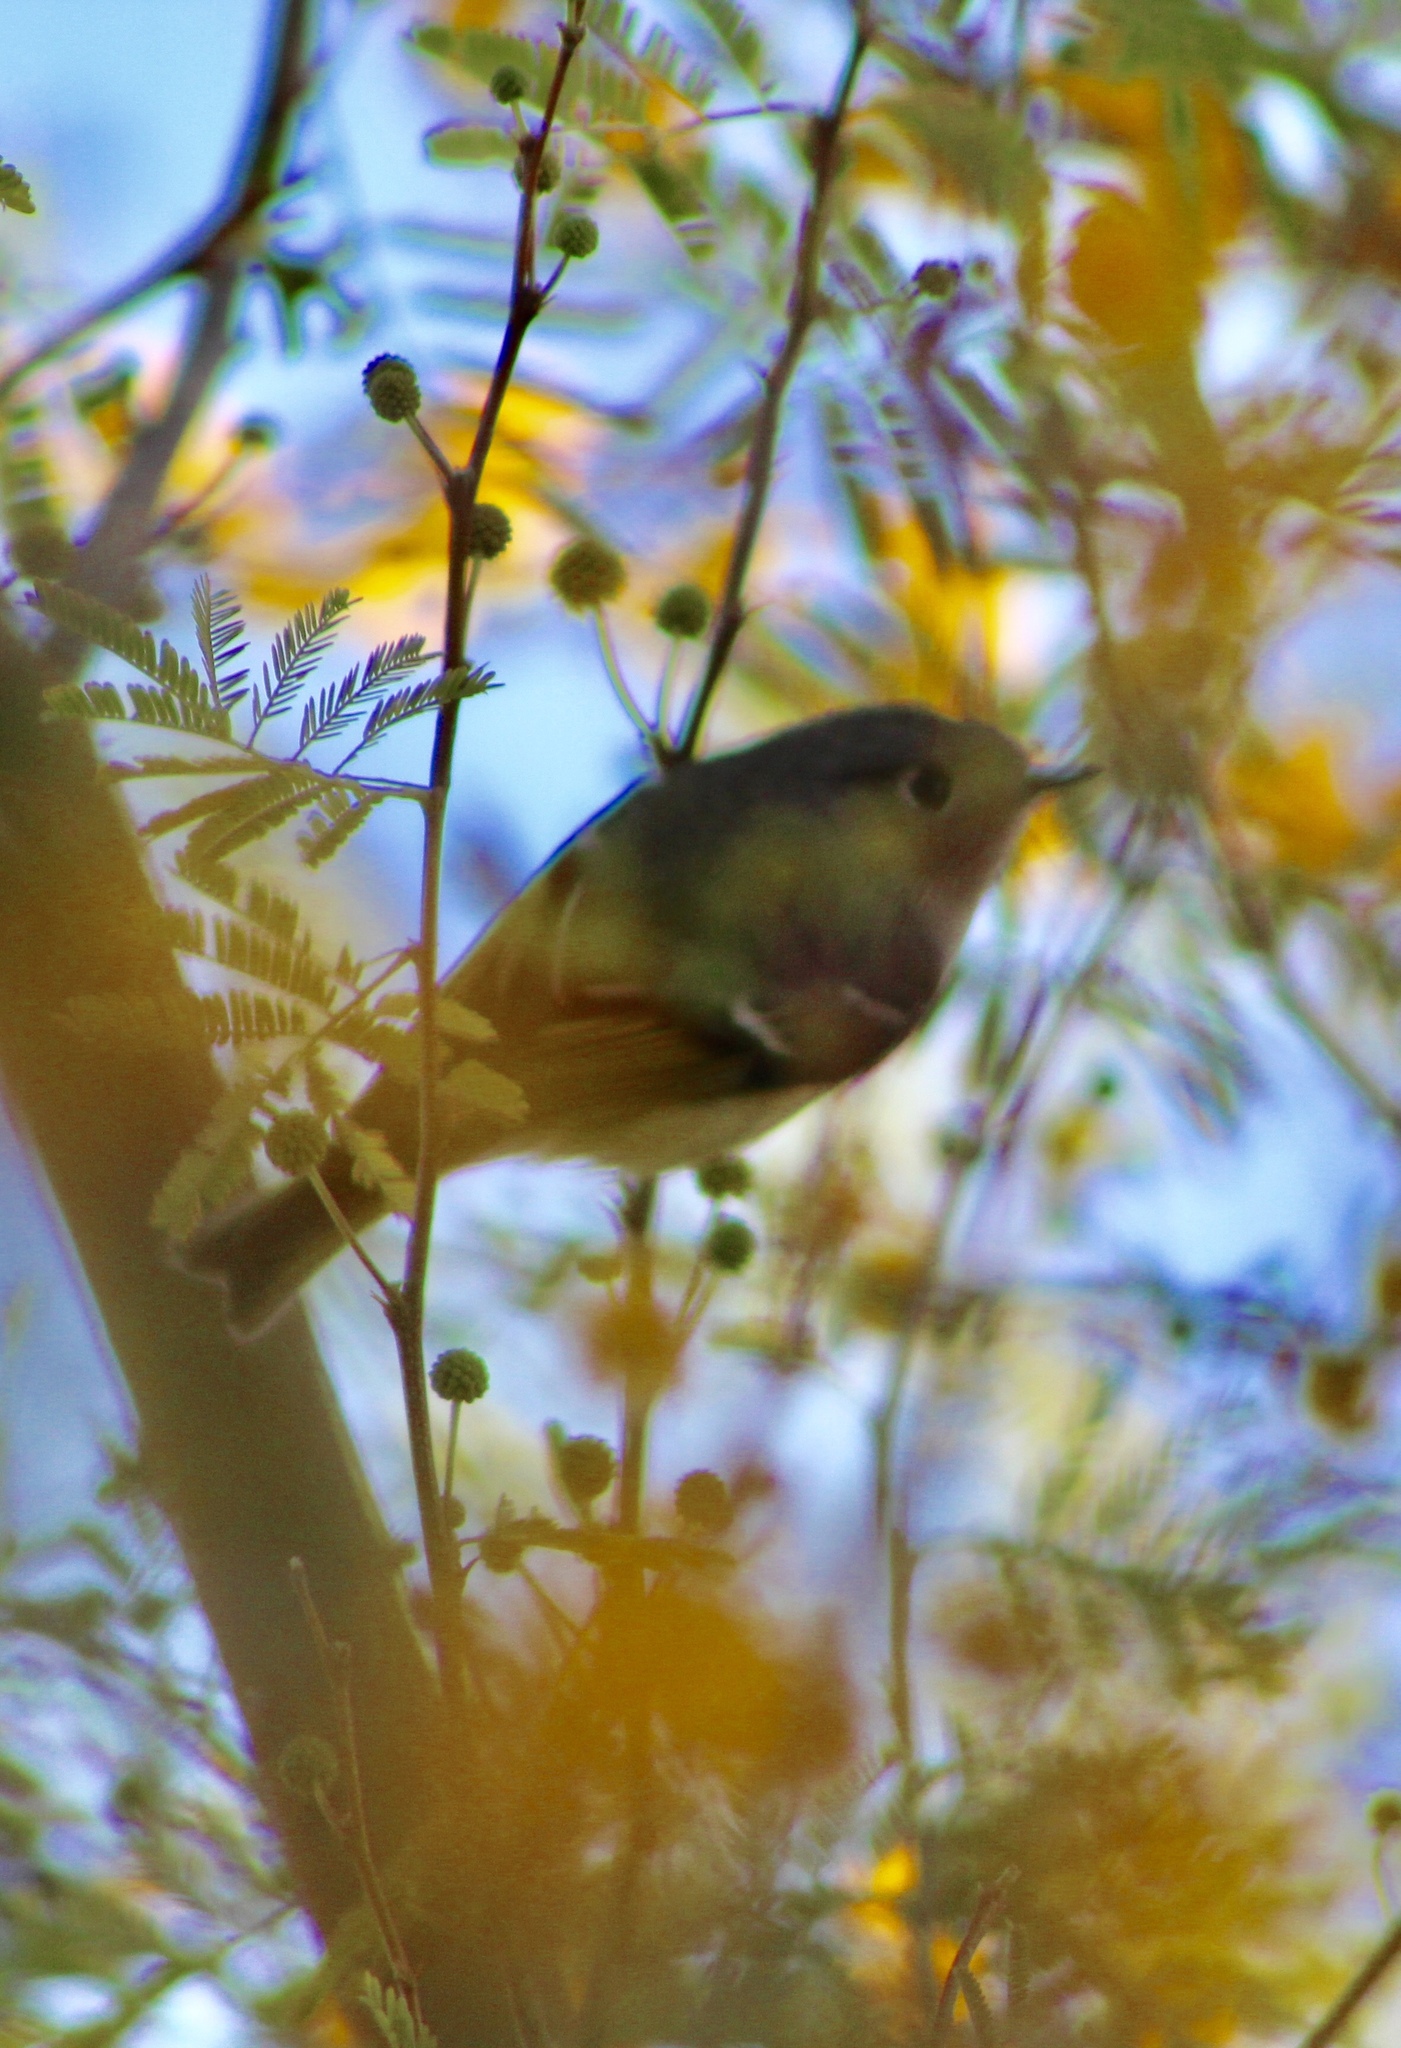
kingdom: Animalia
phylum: Chordata
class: Aves
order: Passeriformes
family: Regulidae
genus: Regulus
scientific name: Regulus calendula
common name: Ruby-crowned kinglet
